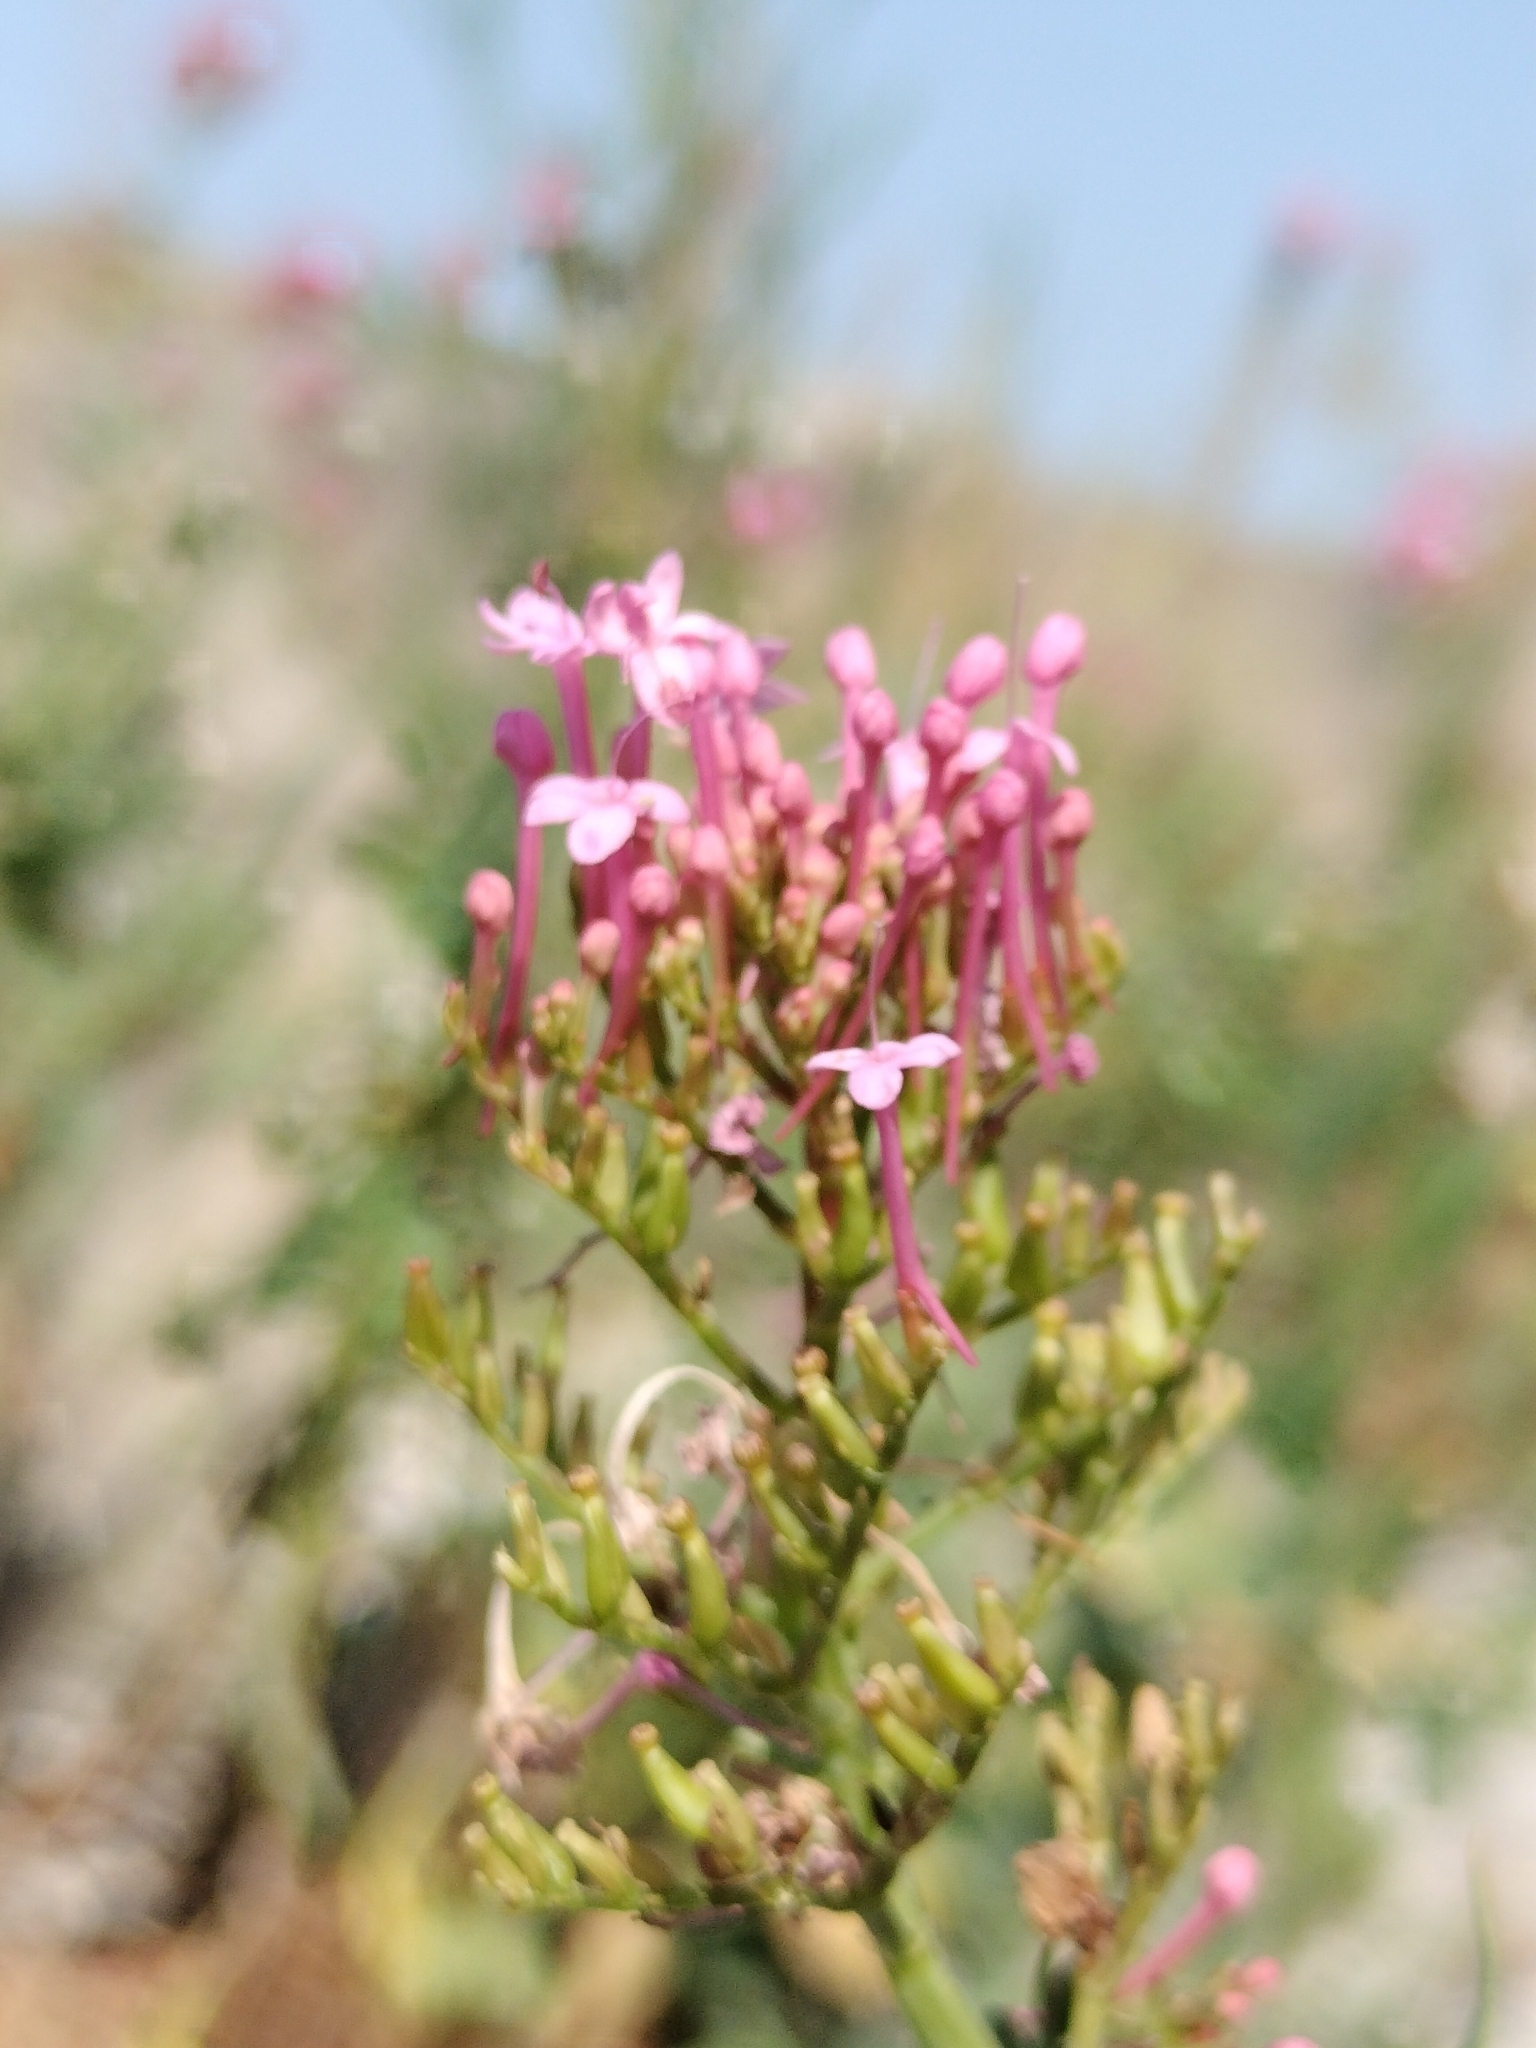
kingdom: Plantae
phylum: Tracheophyta
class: Magnoliopsida
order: Dipsacales
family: Caprifoliaceae
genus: Centranthus
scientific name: Centranthus ruber
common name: Red valerian
